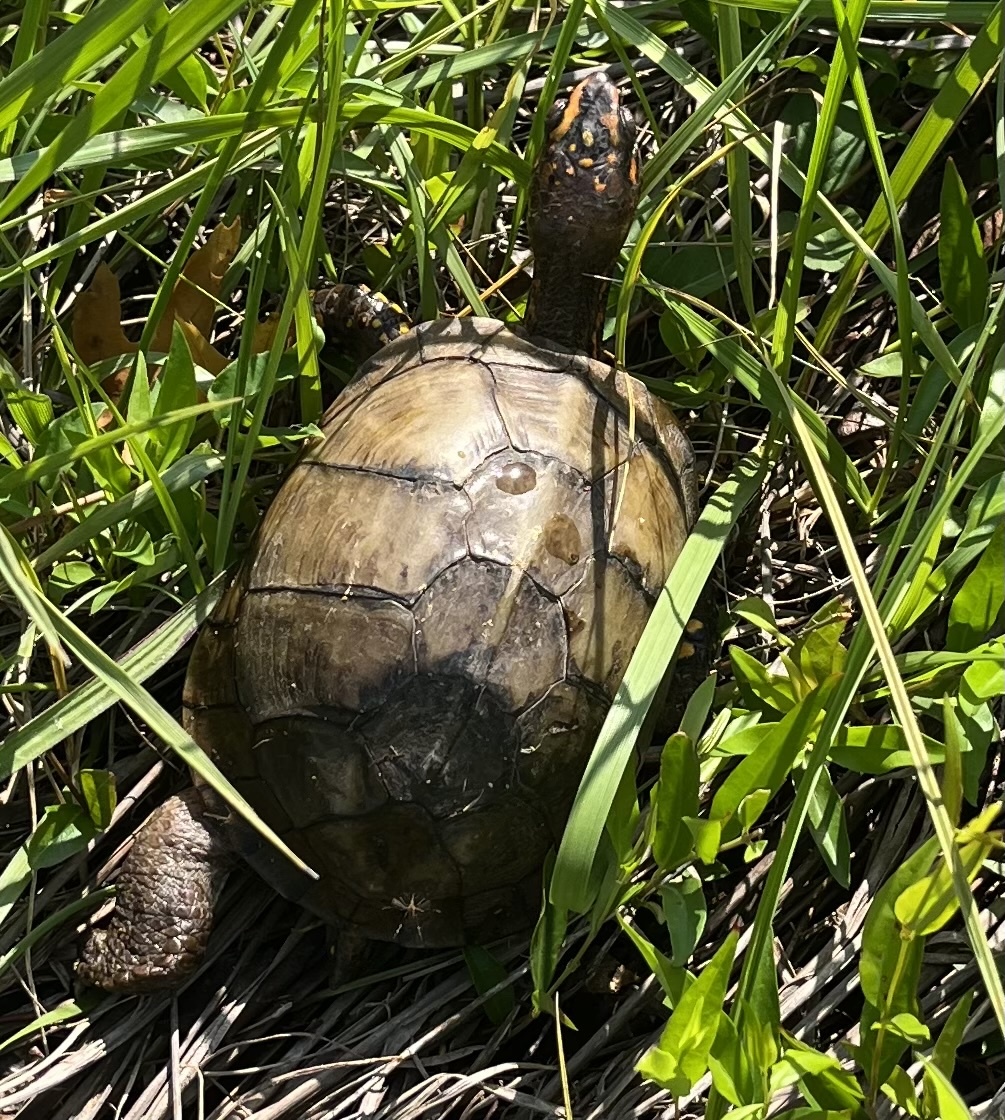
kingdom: Animalia
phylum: Chordata
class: Testudines
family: Emydidae
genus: Terrapene
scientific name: Terrapene carolina
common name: Common box turtle
